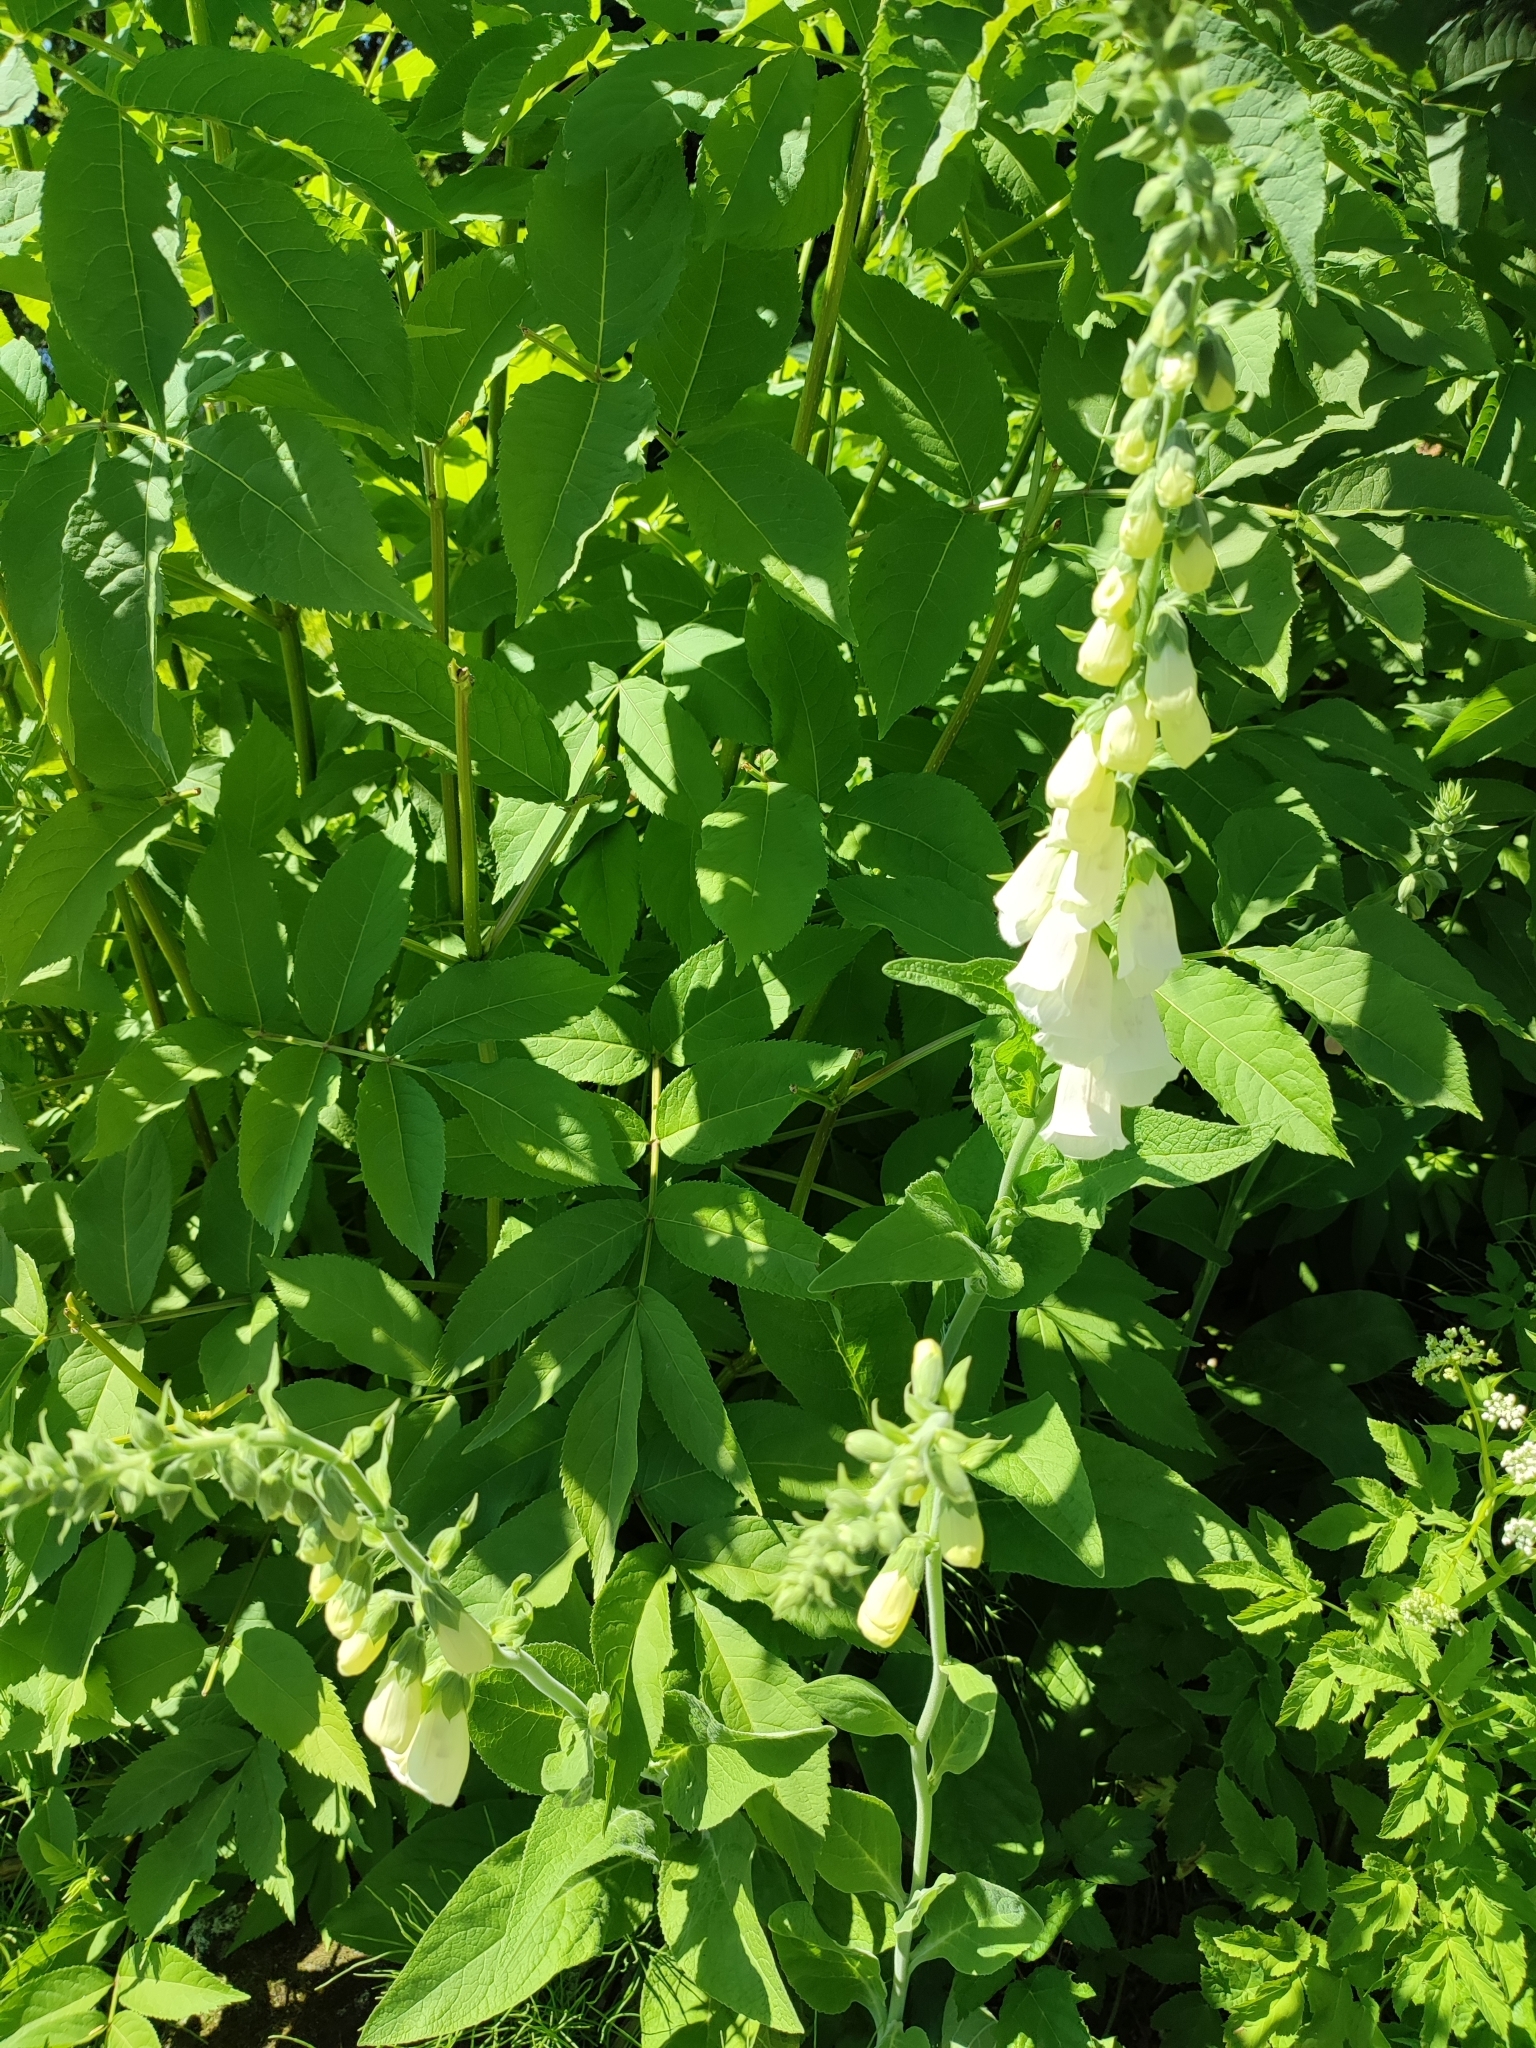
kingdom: Plantae
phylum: Tracheophyta
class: Magnoliopsida
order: Lamiales
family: Plantaginaceae
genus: Digitalis
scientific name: Digitalis purpurea
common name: Foxglove
